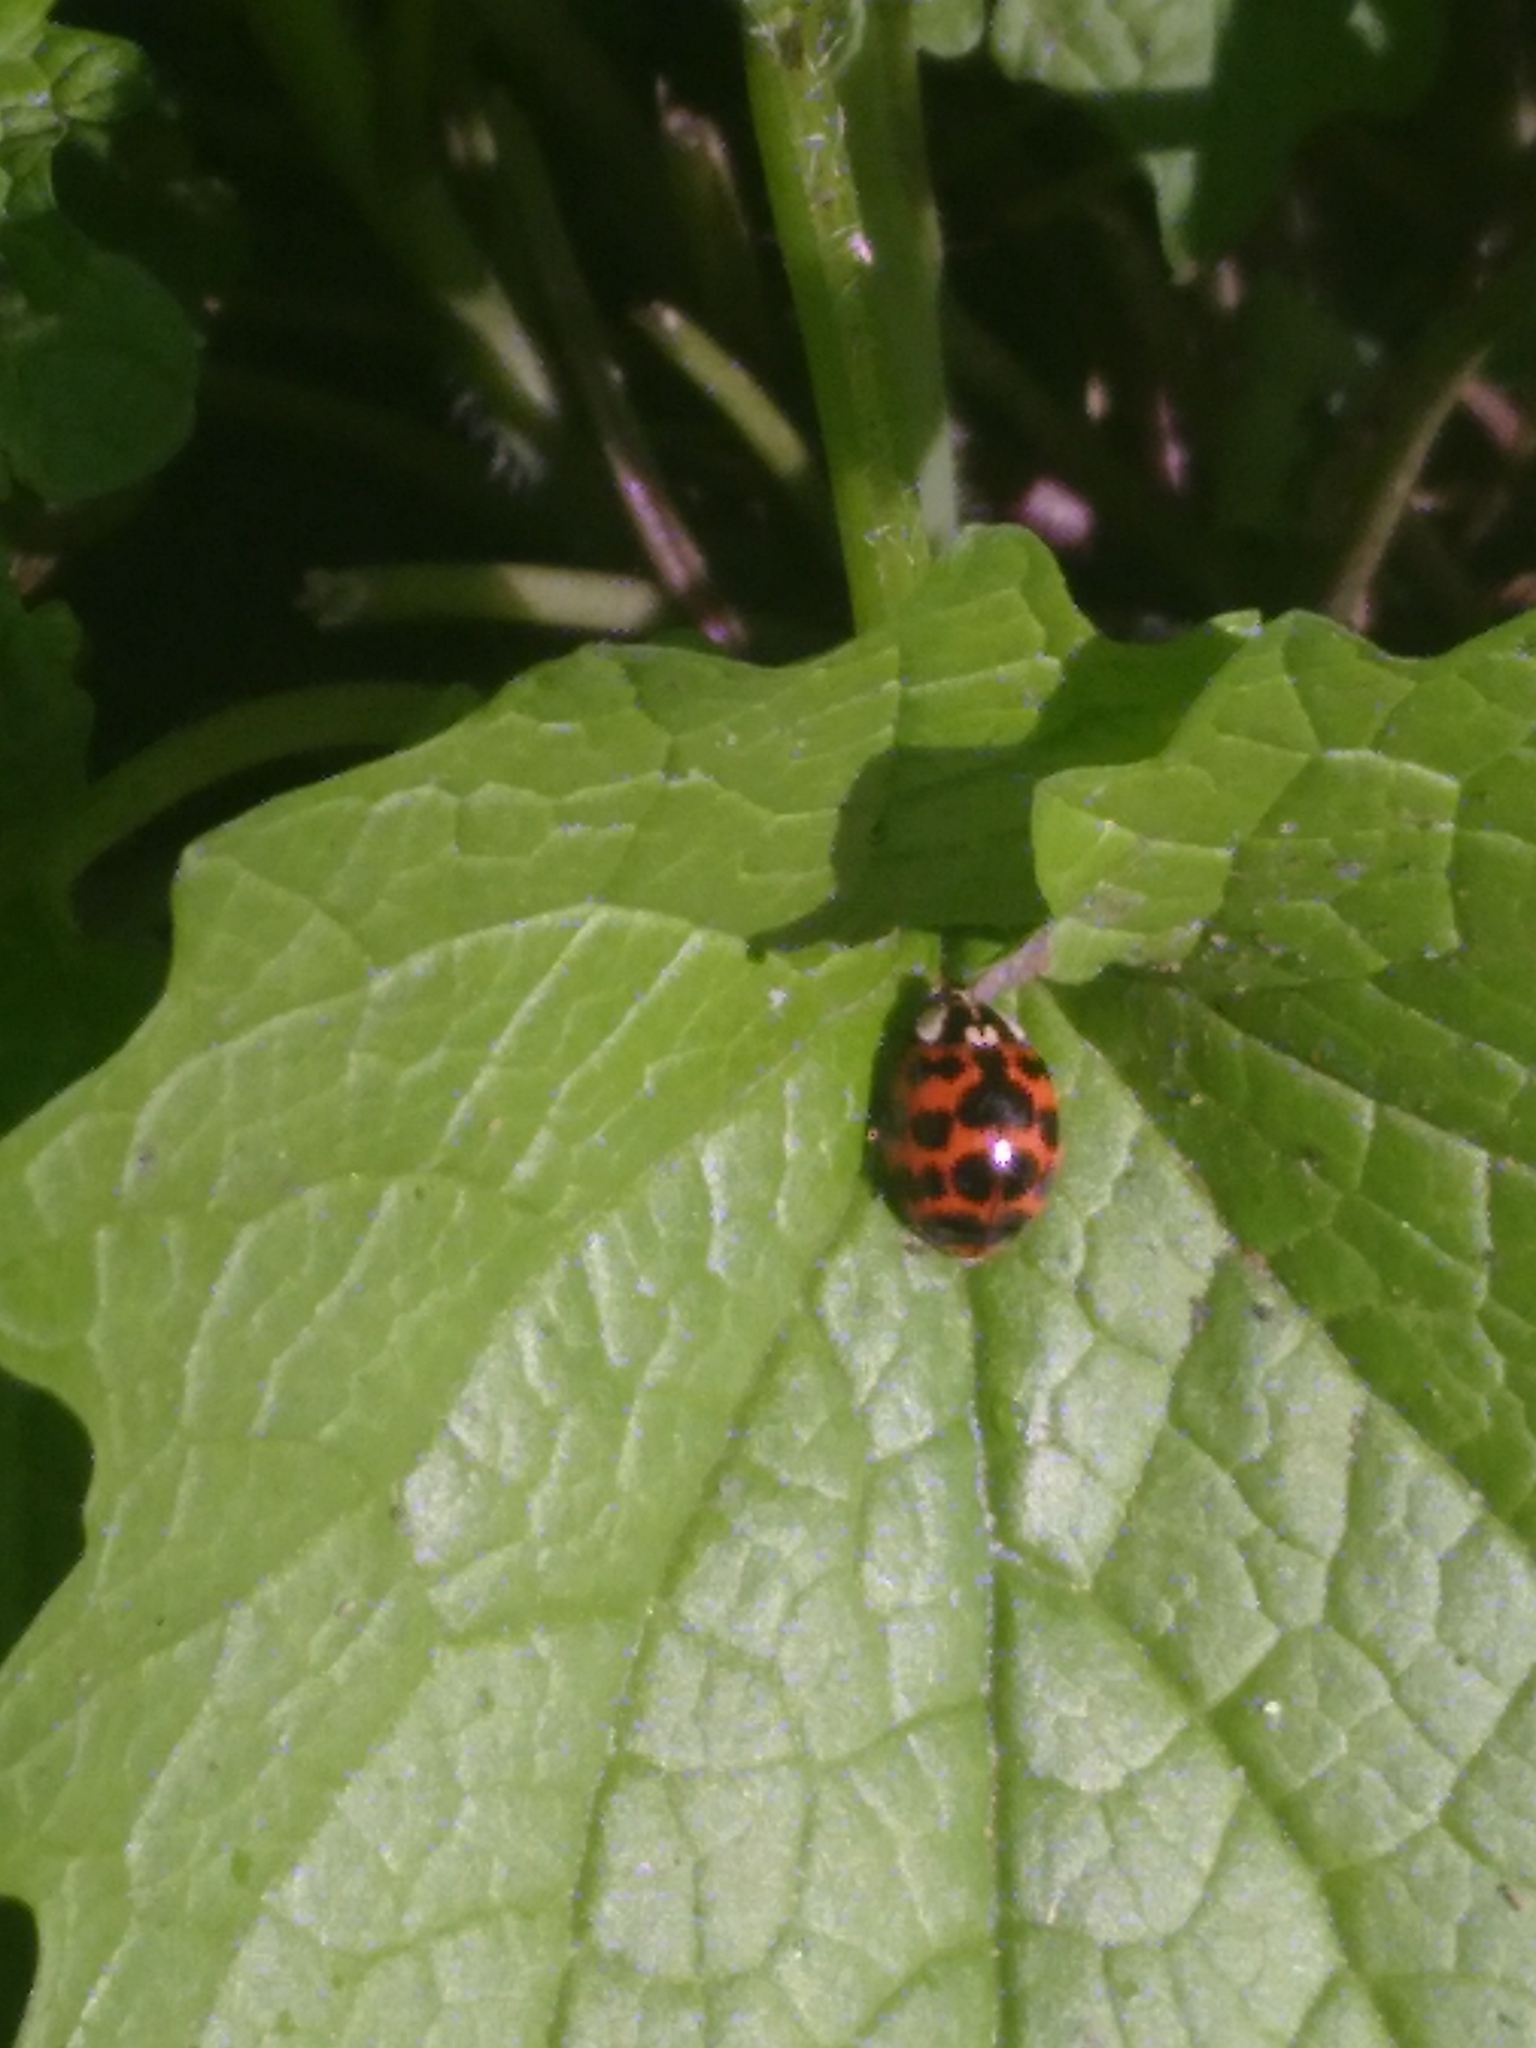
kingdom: Animalia
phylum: Arthropoda
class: Insecta
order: Coleoptera
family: Coccinellidae
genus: Harmonia
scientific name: Harmonia axyridis
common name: Harlequin ladybird
